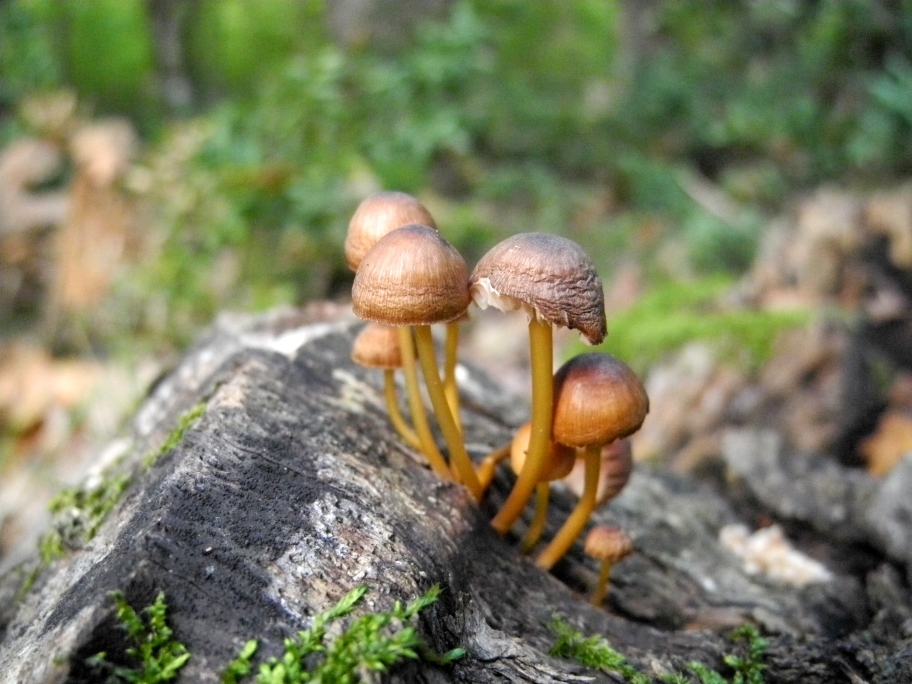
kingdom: Fungi
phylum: Basidiomycota
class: Agaricomycetes
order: Agaricales
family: Mycenaceae
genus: Mycena
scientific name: Mycena renati
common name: Beautiful bonnet
